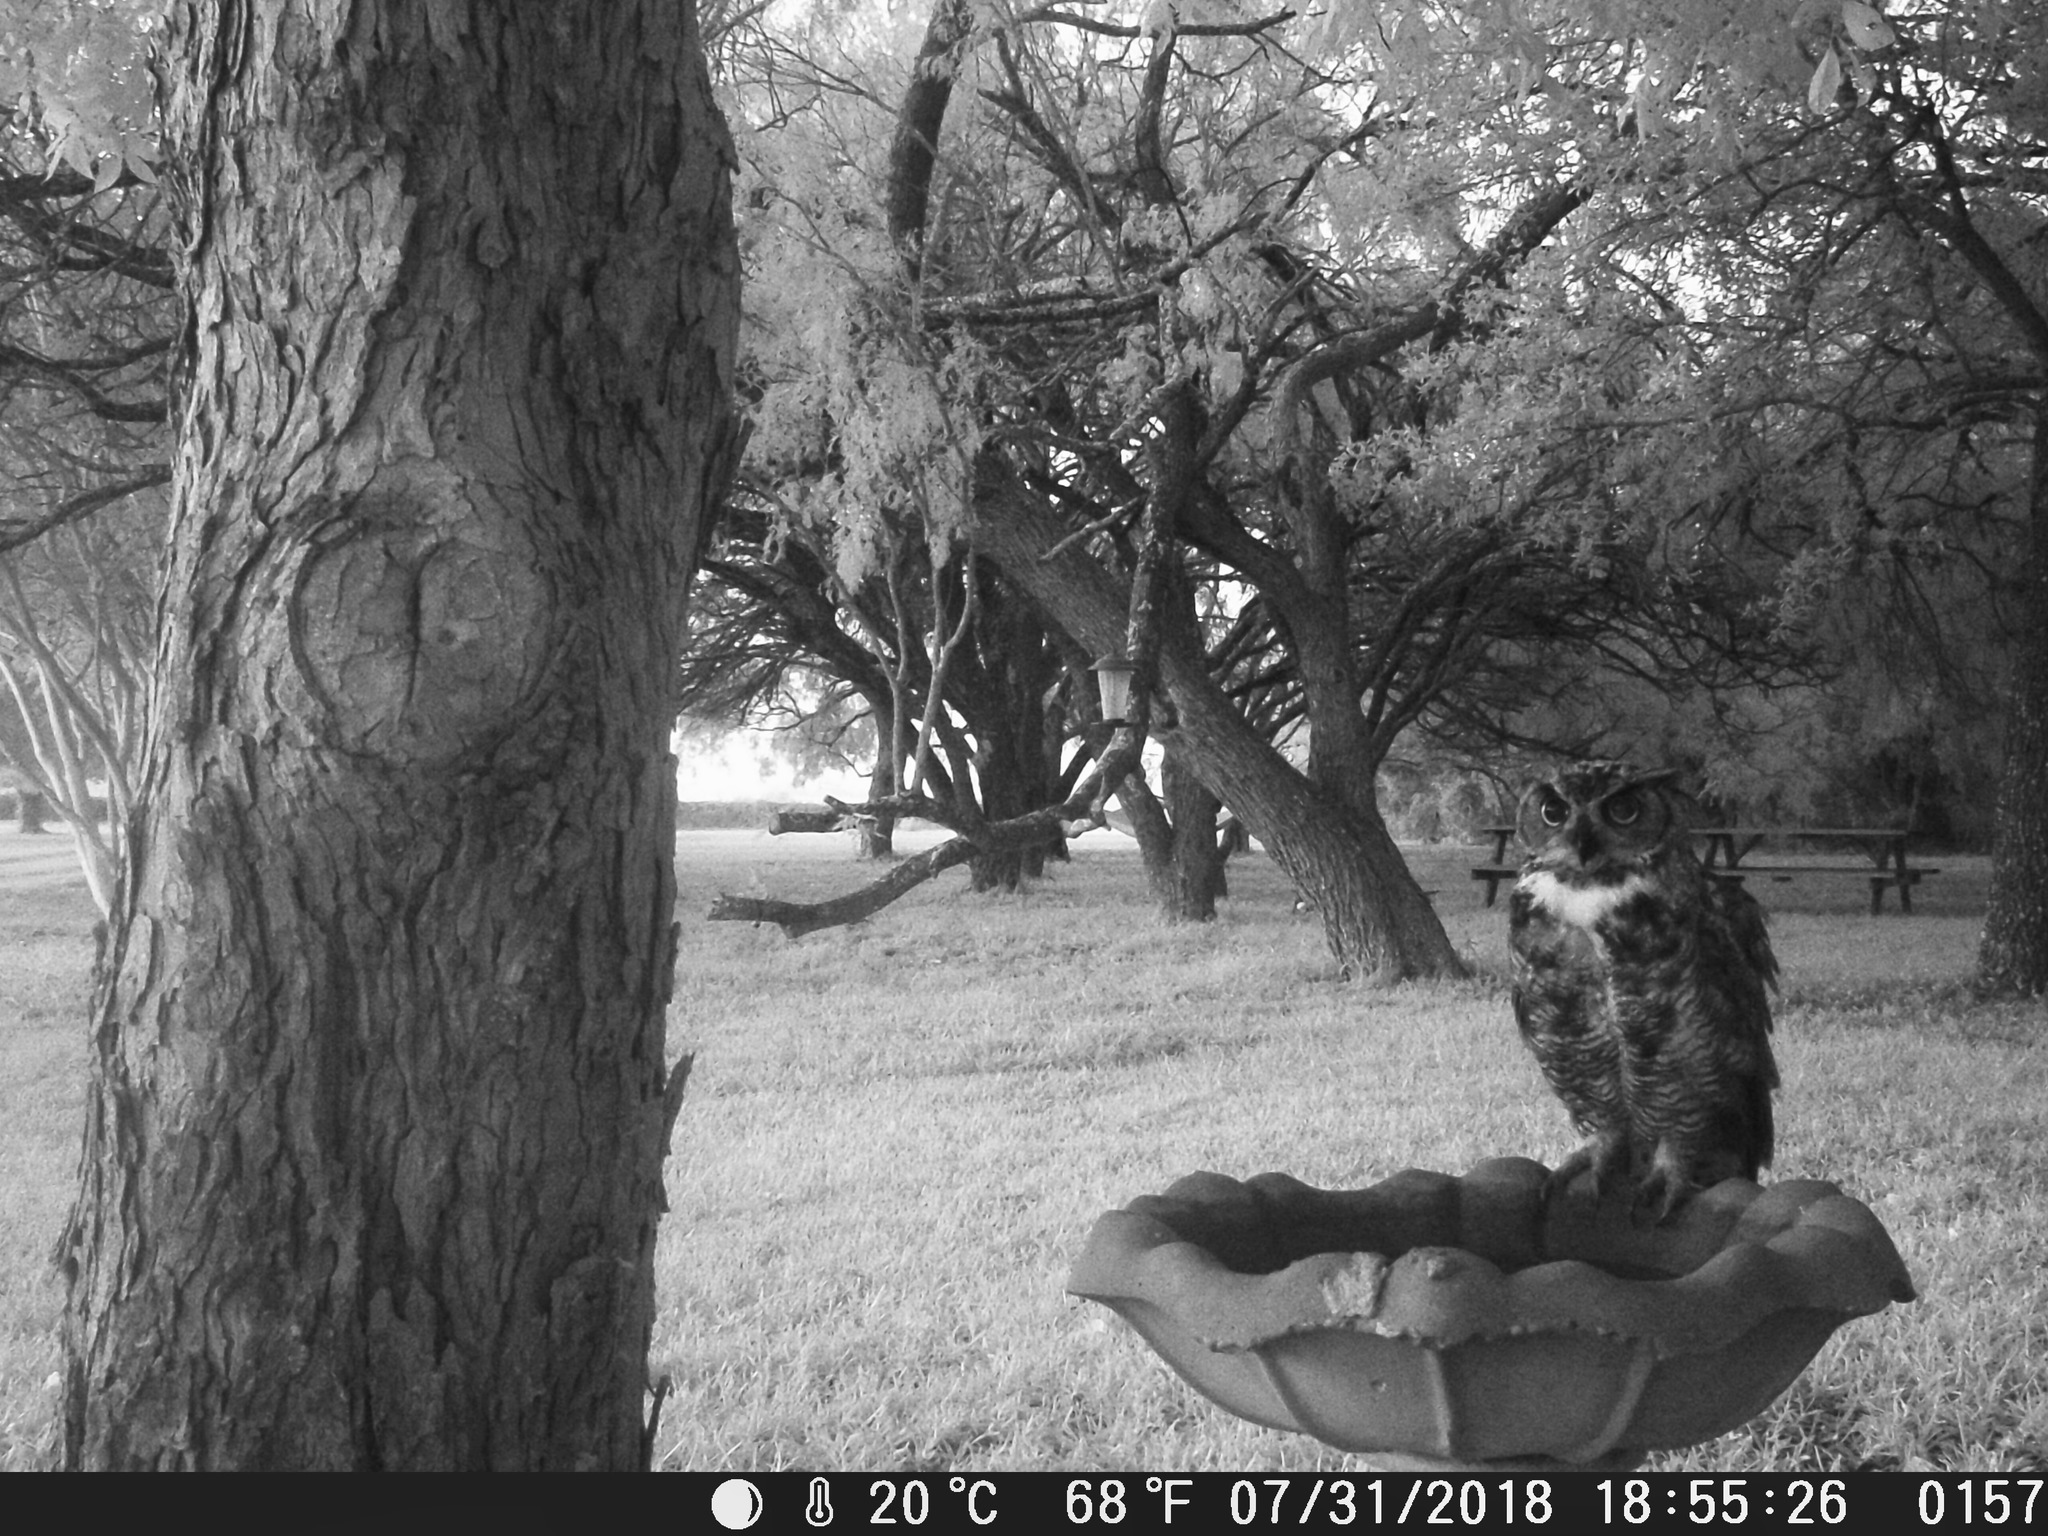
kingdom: Animalia
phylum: Chordata
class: Aves
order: Strigiformes
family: Strigidae
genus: Bubo
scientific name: Bubo virginianus
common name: Great horned owl
